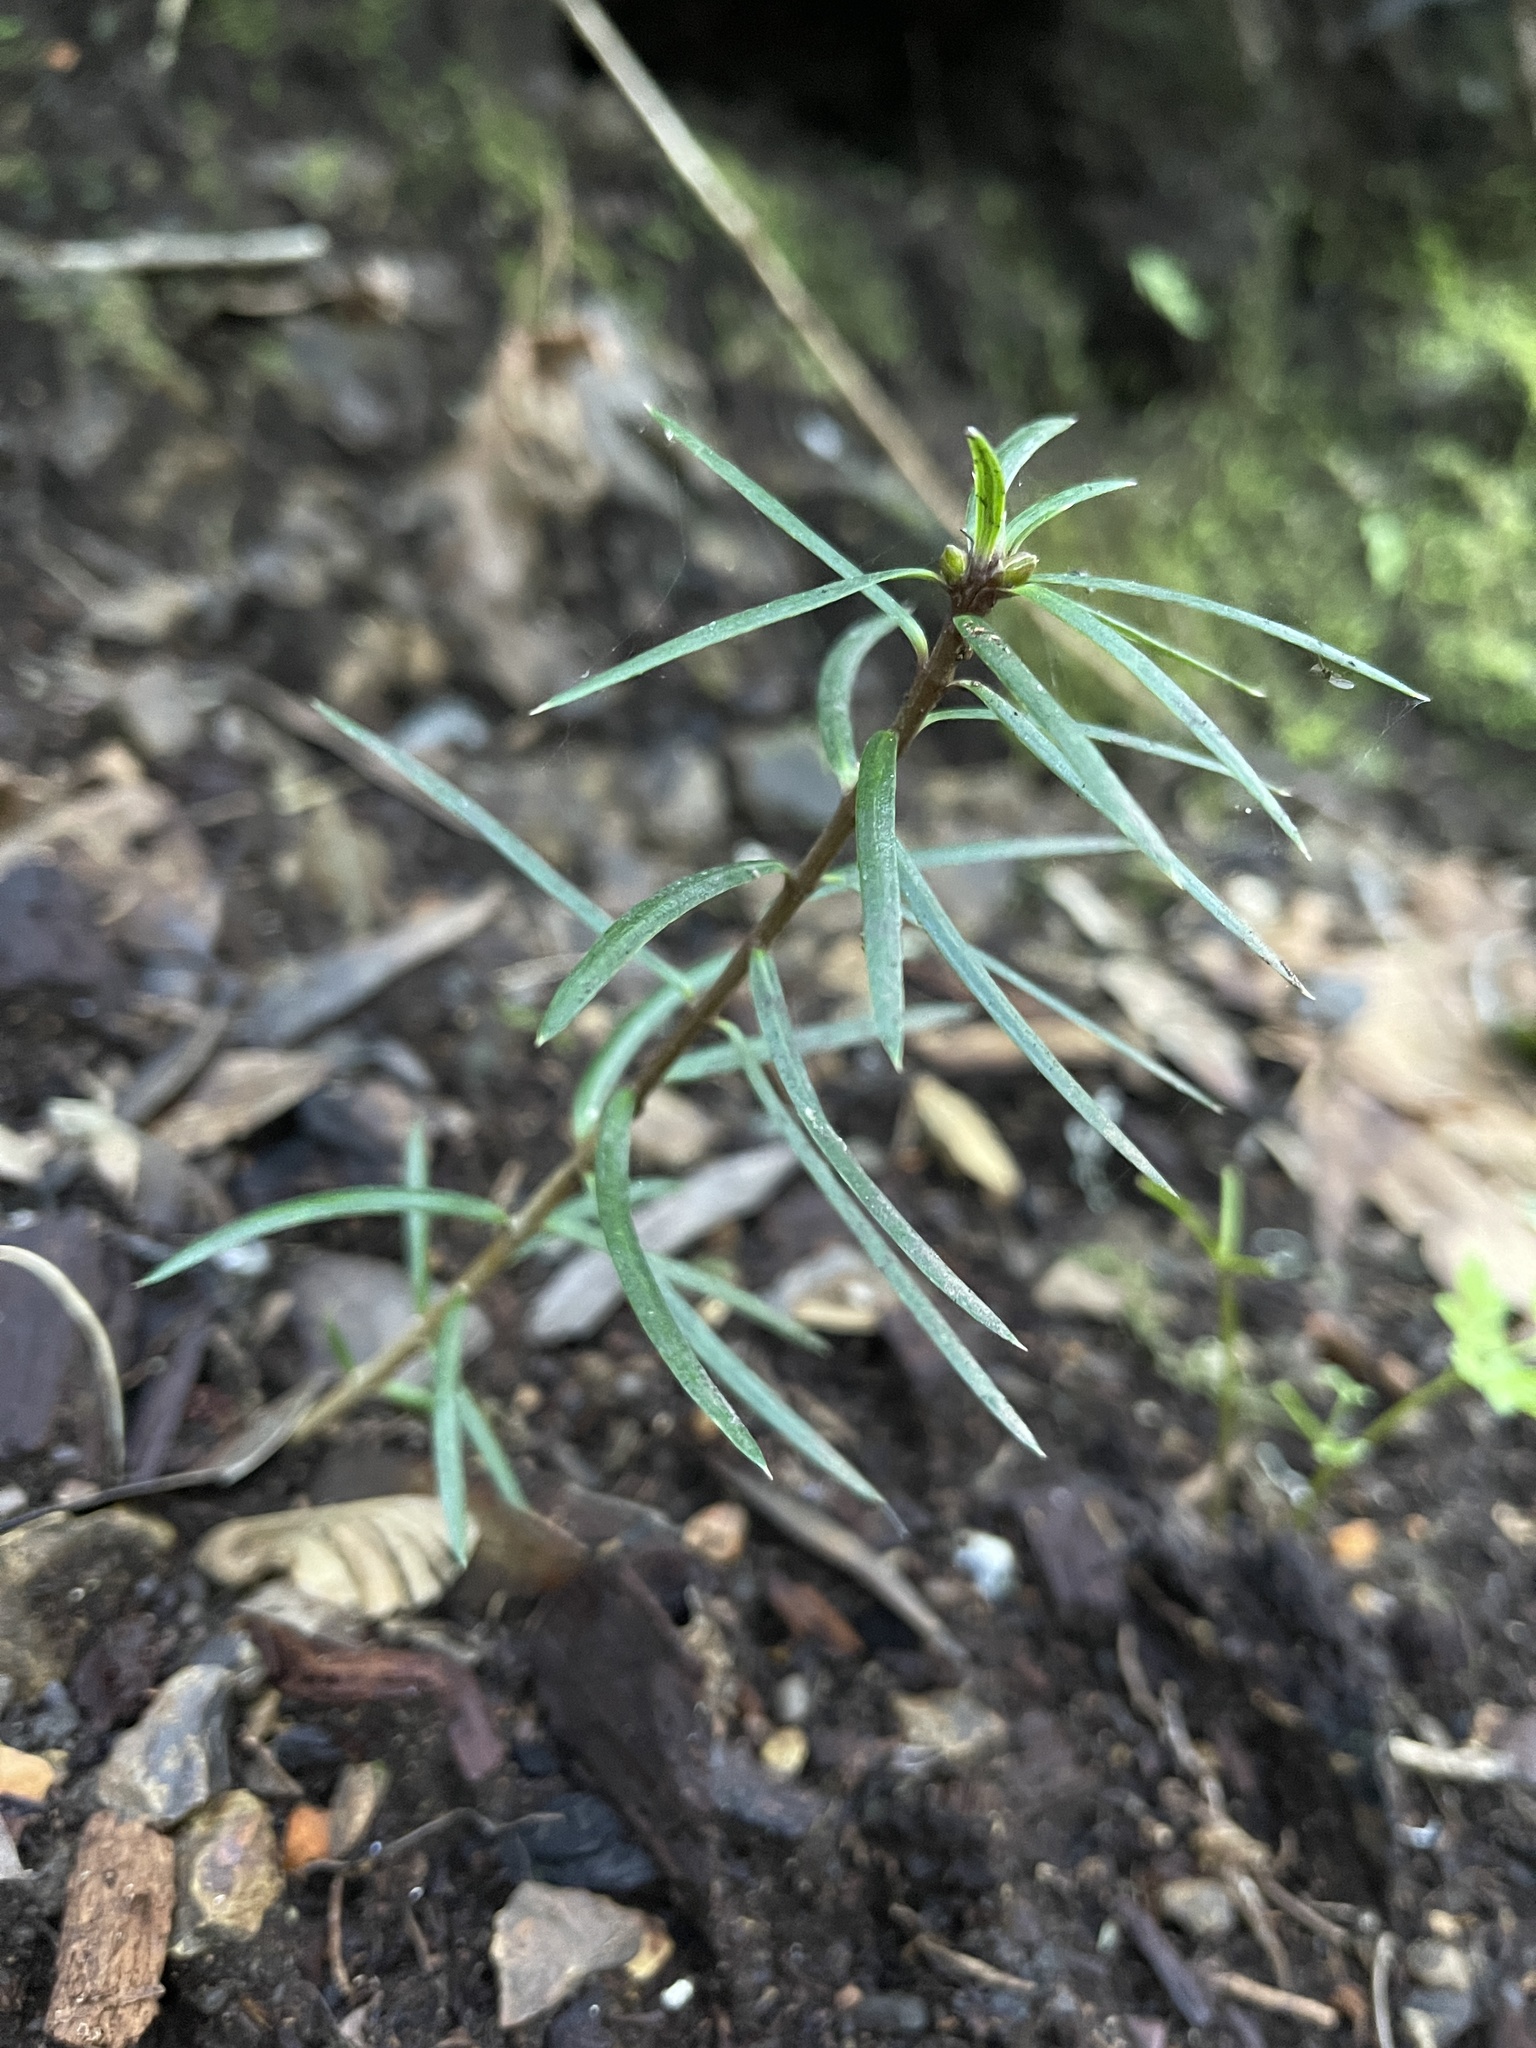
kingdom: Plantae
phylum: Tracheophyta
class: Pinopsida
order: Pinales
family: Taxaceae
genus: Torreya
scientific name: Torreya californica
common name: California torreya
